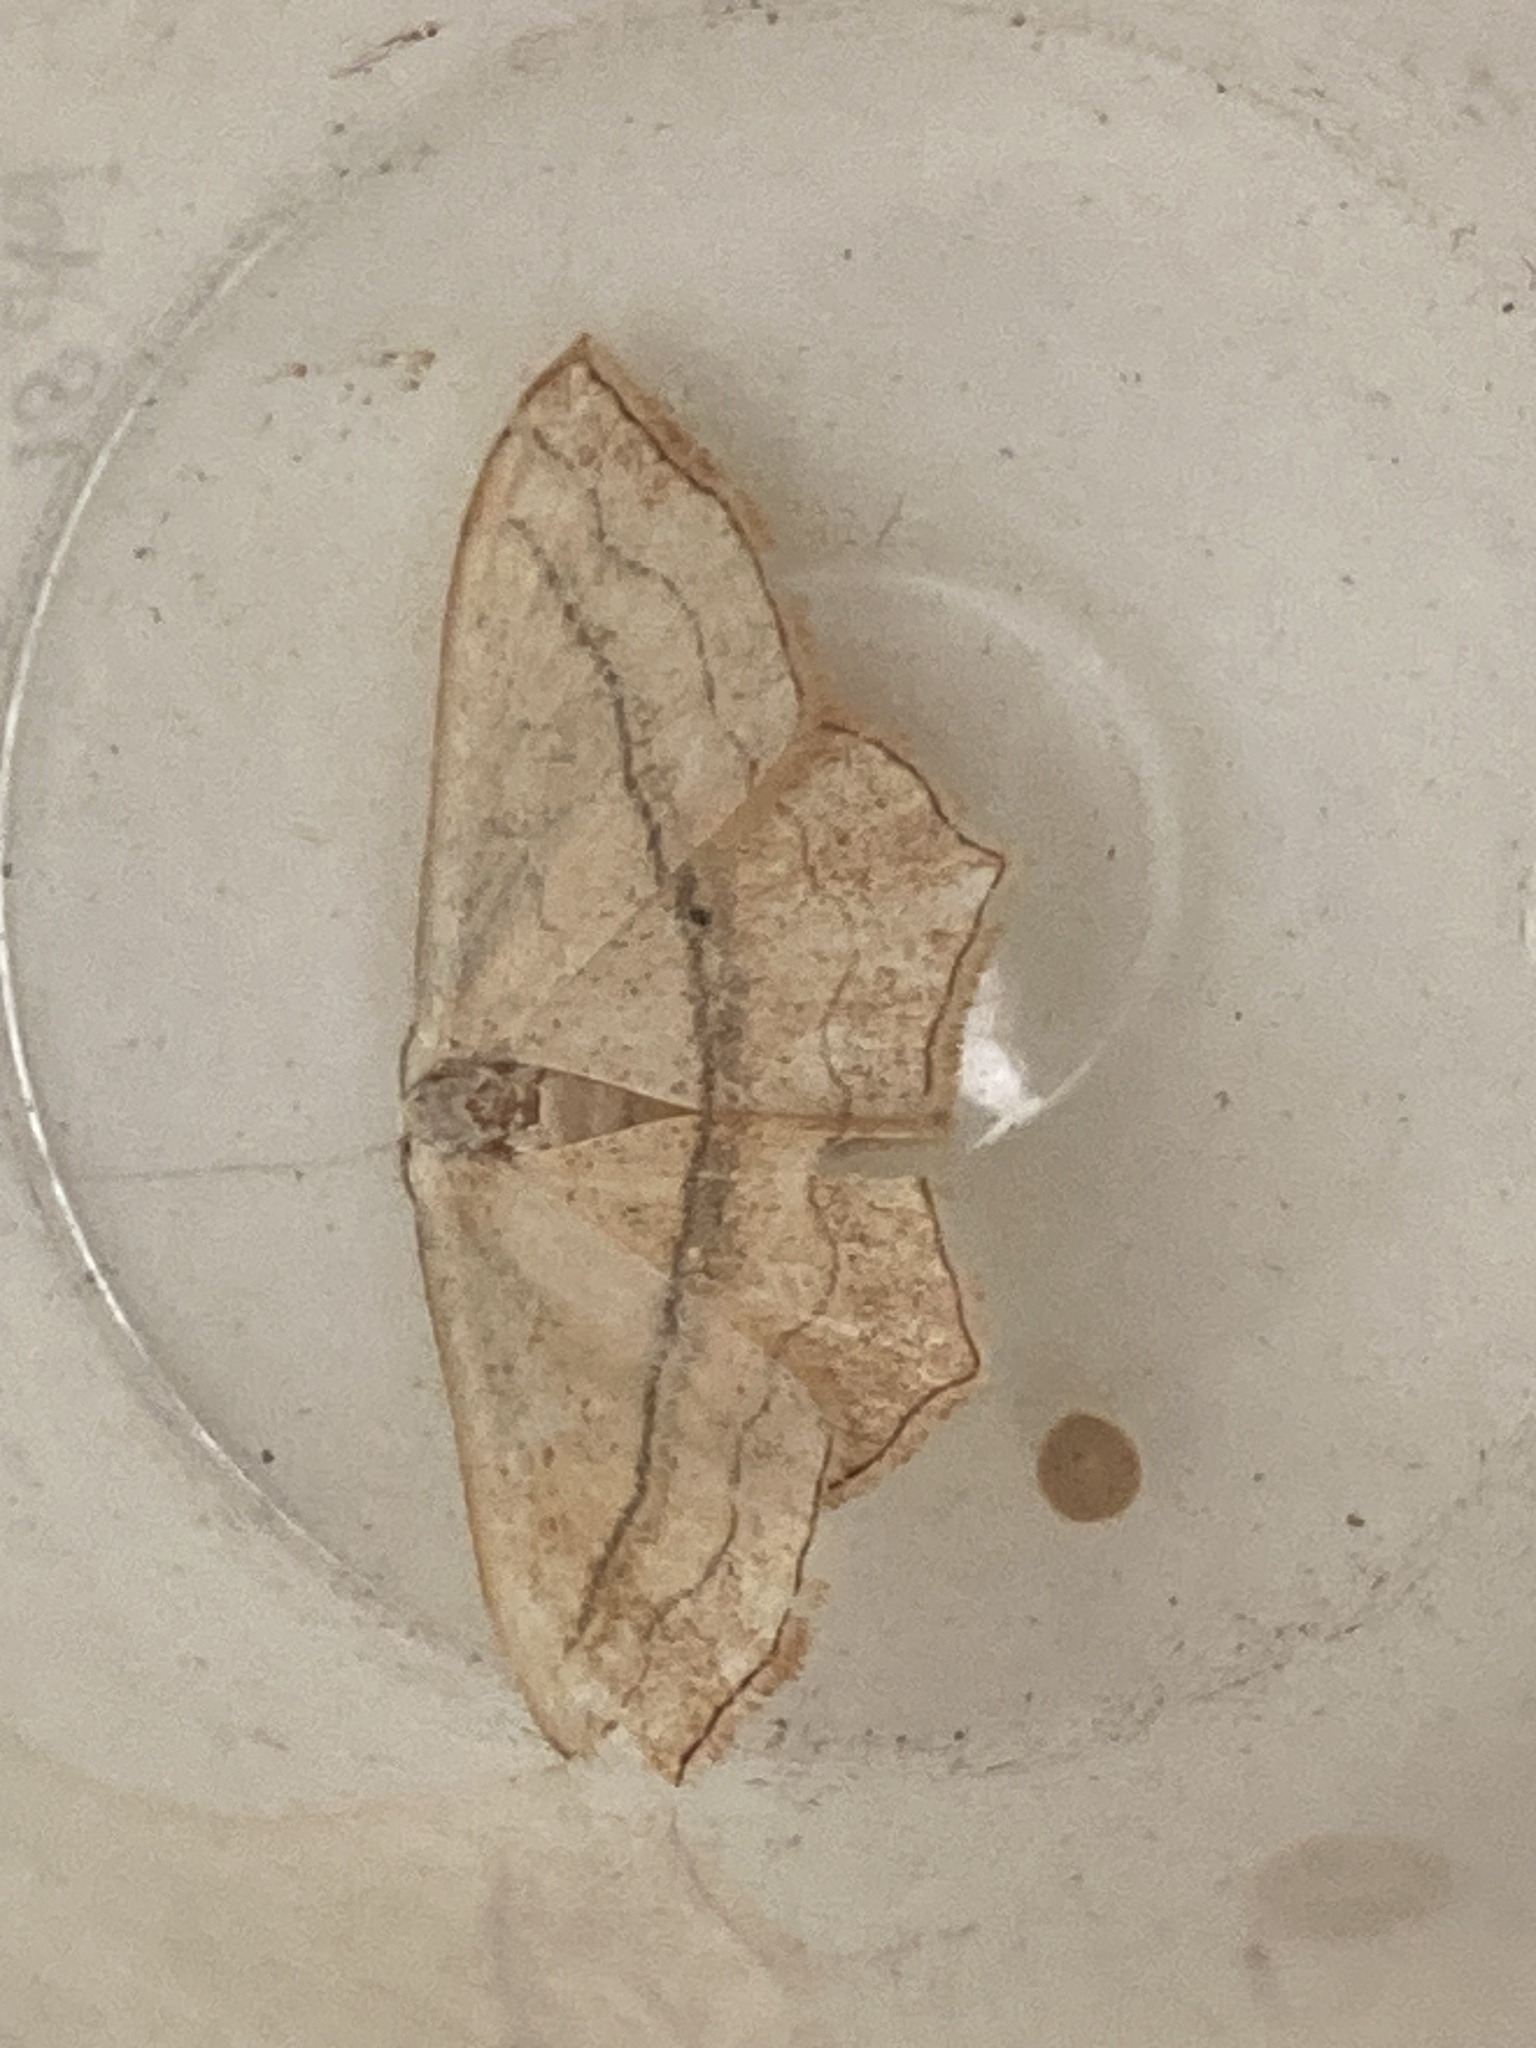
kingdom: Animalia
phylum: Arthropoda
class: Insecta
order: Lepidoptera
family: Geometridae
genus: Scopula
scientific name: Scopula imitaria
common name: Small blood-vein
